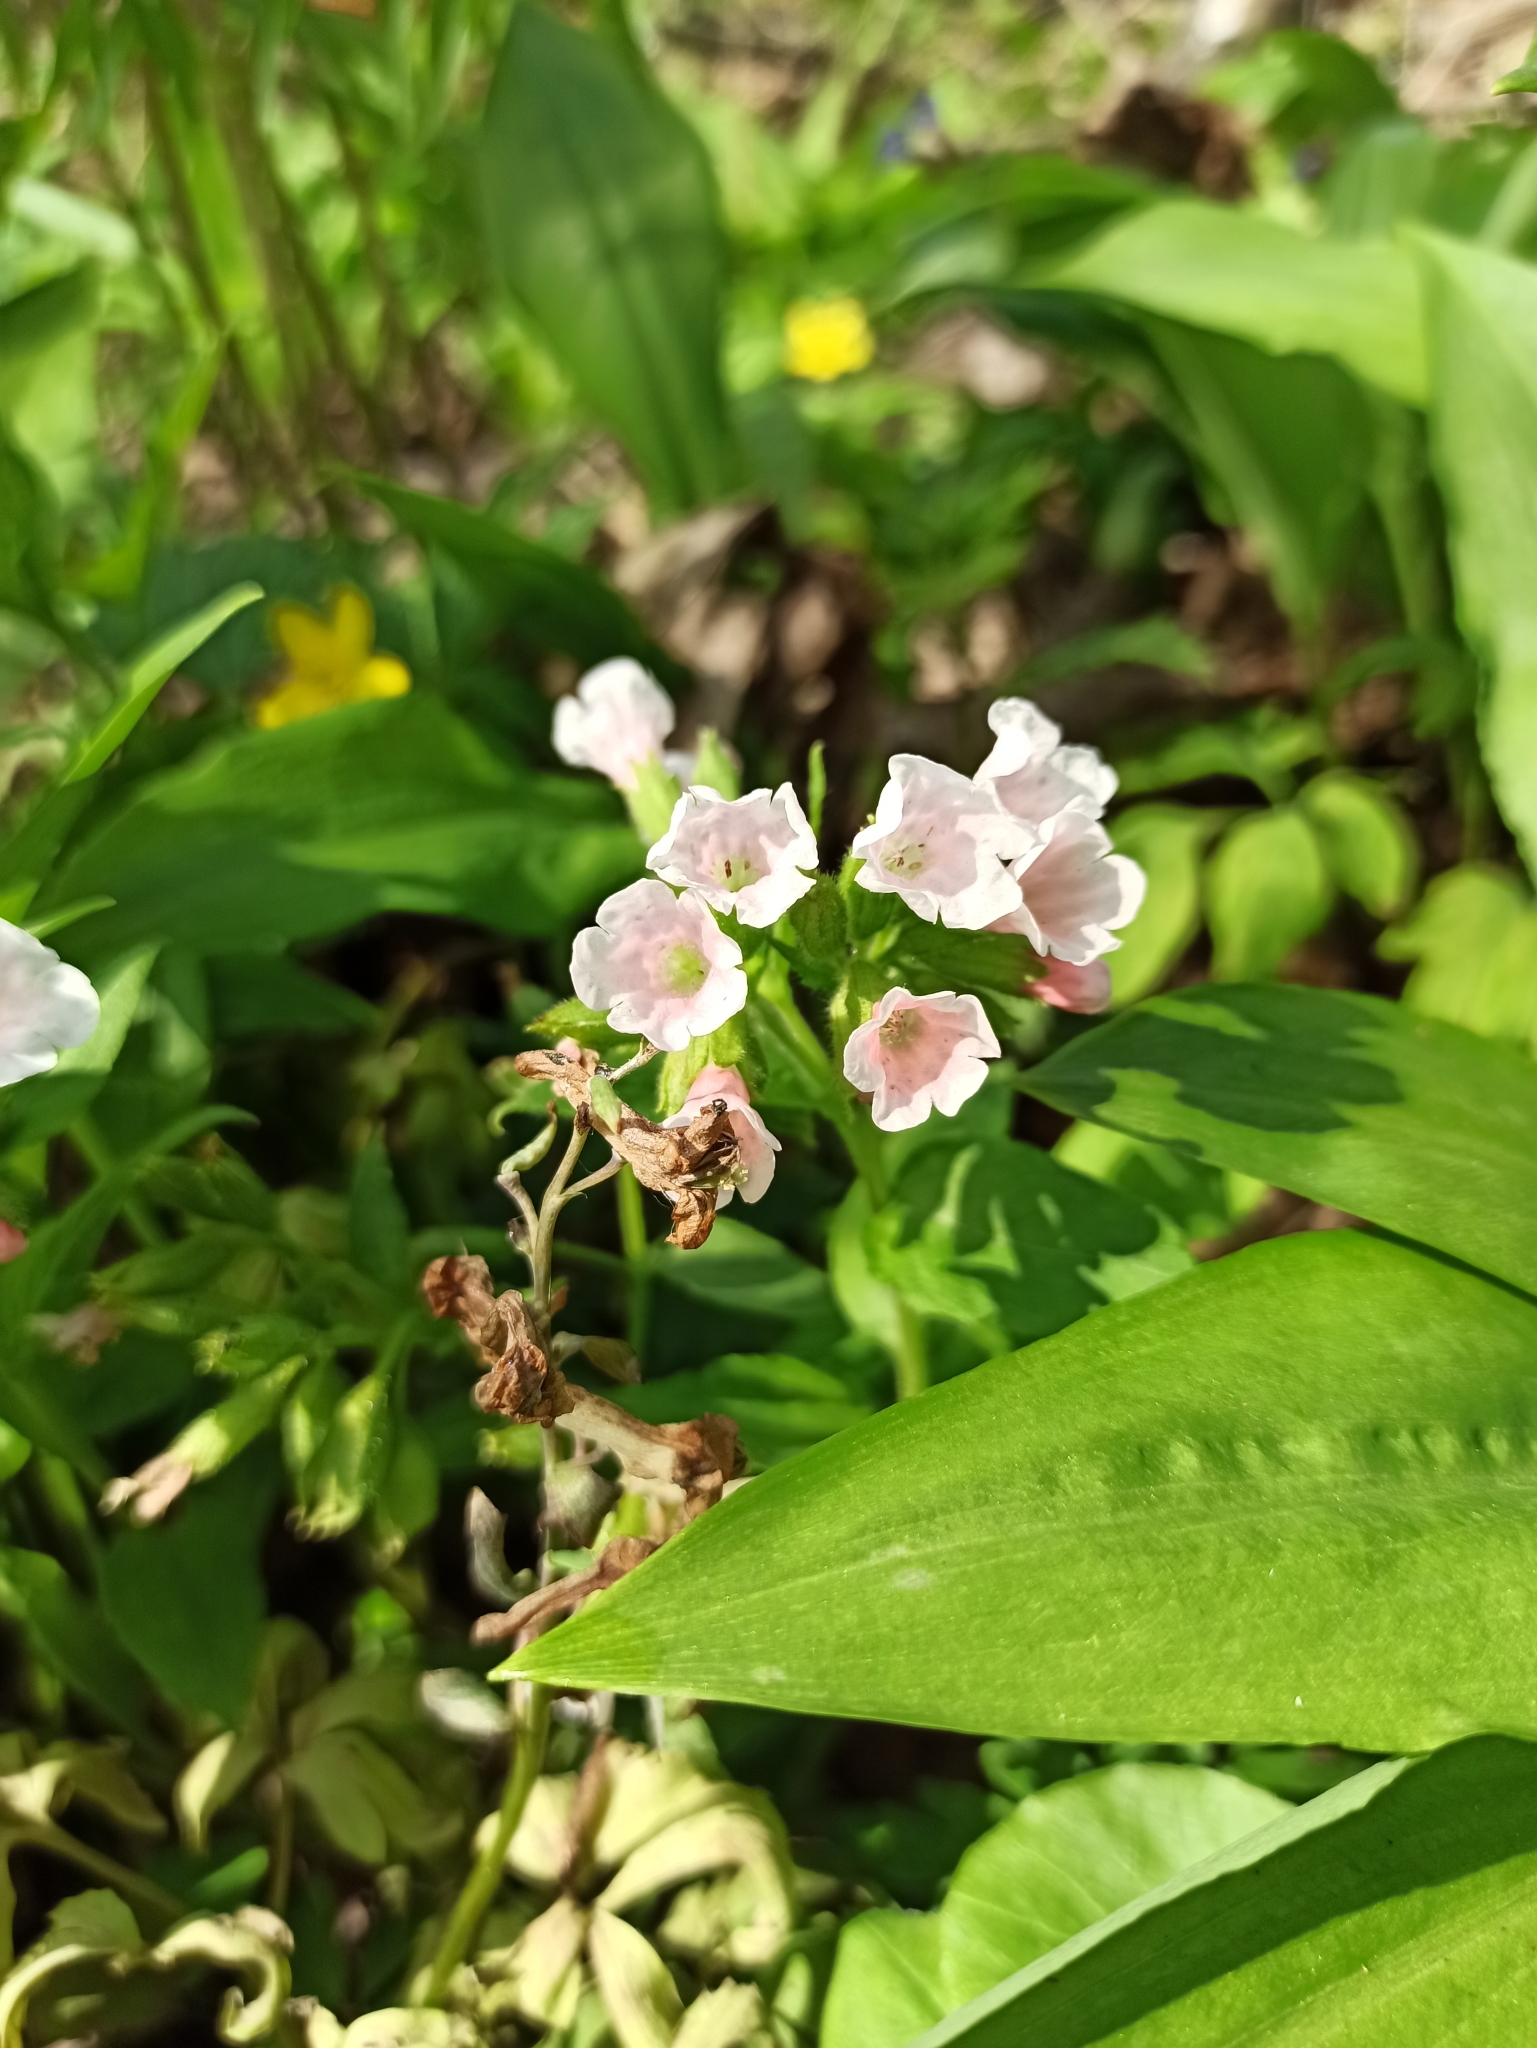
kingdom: Plantae
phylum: Tracheophyta
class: Magnoliopsida
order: Boraginales
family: Boraginaceae
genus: Pulmonaria
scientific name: Pulmonaria obscura
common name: Suffolk lungwort
